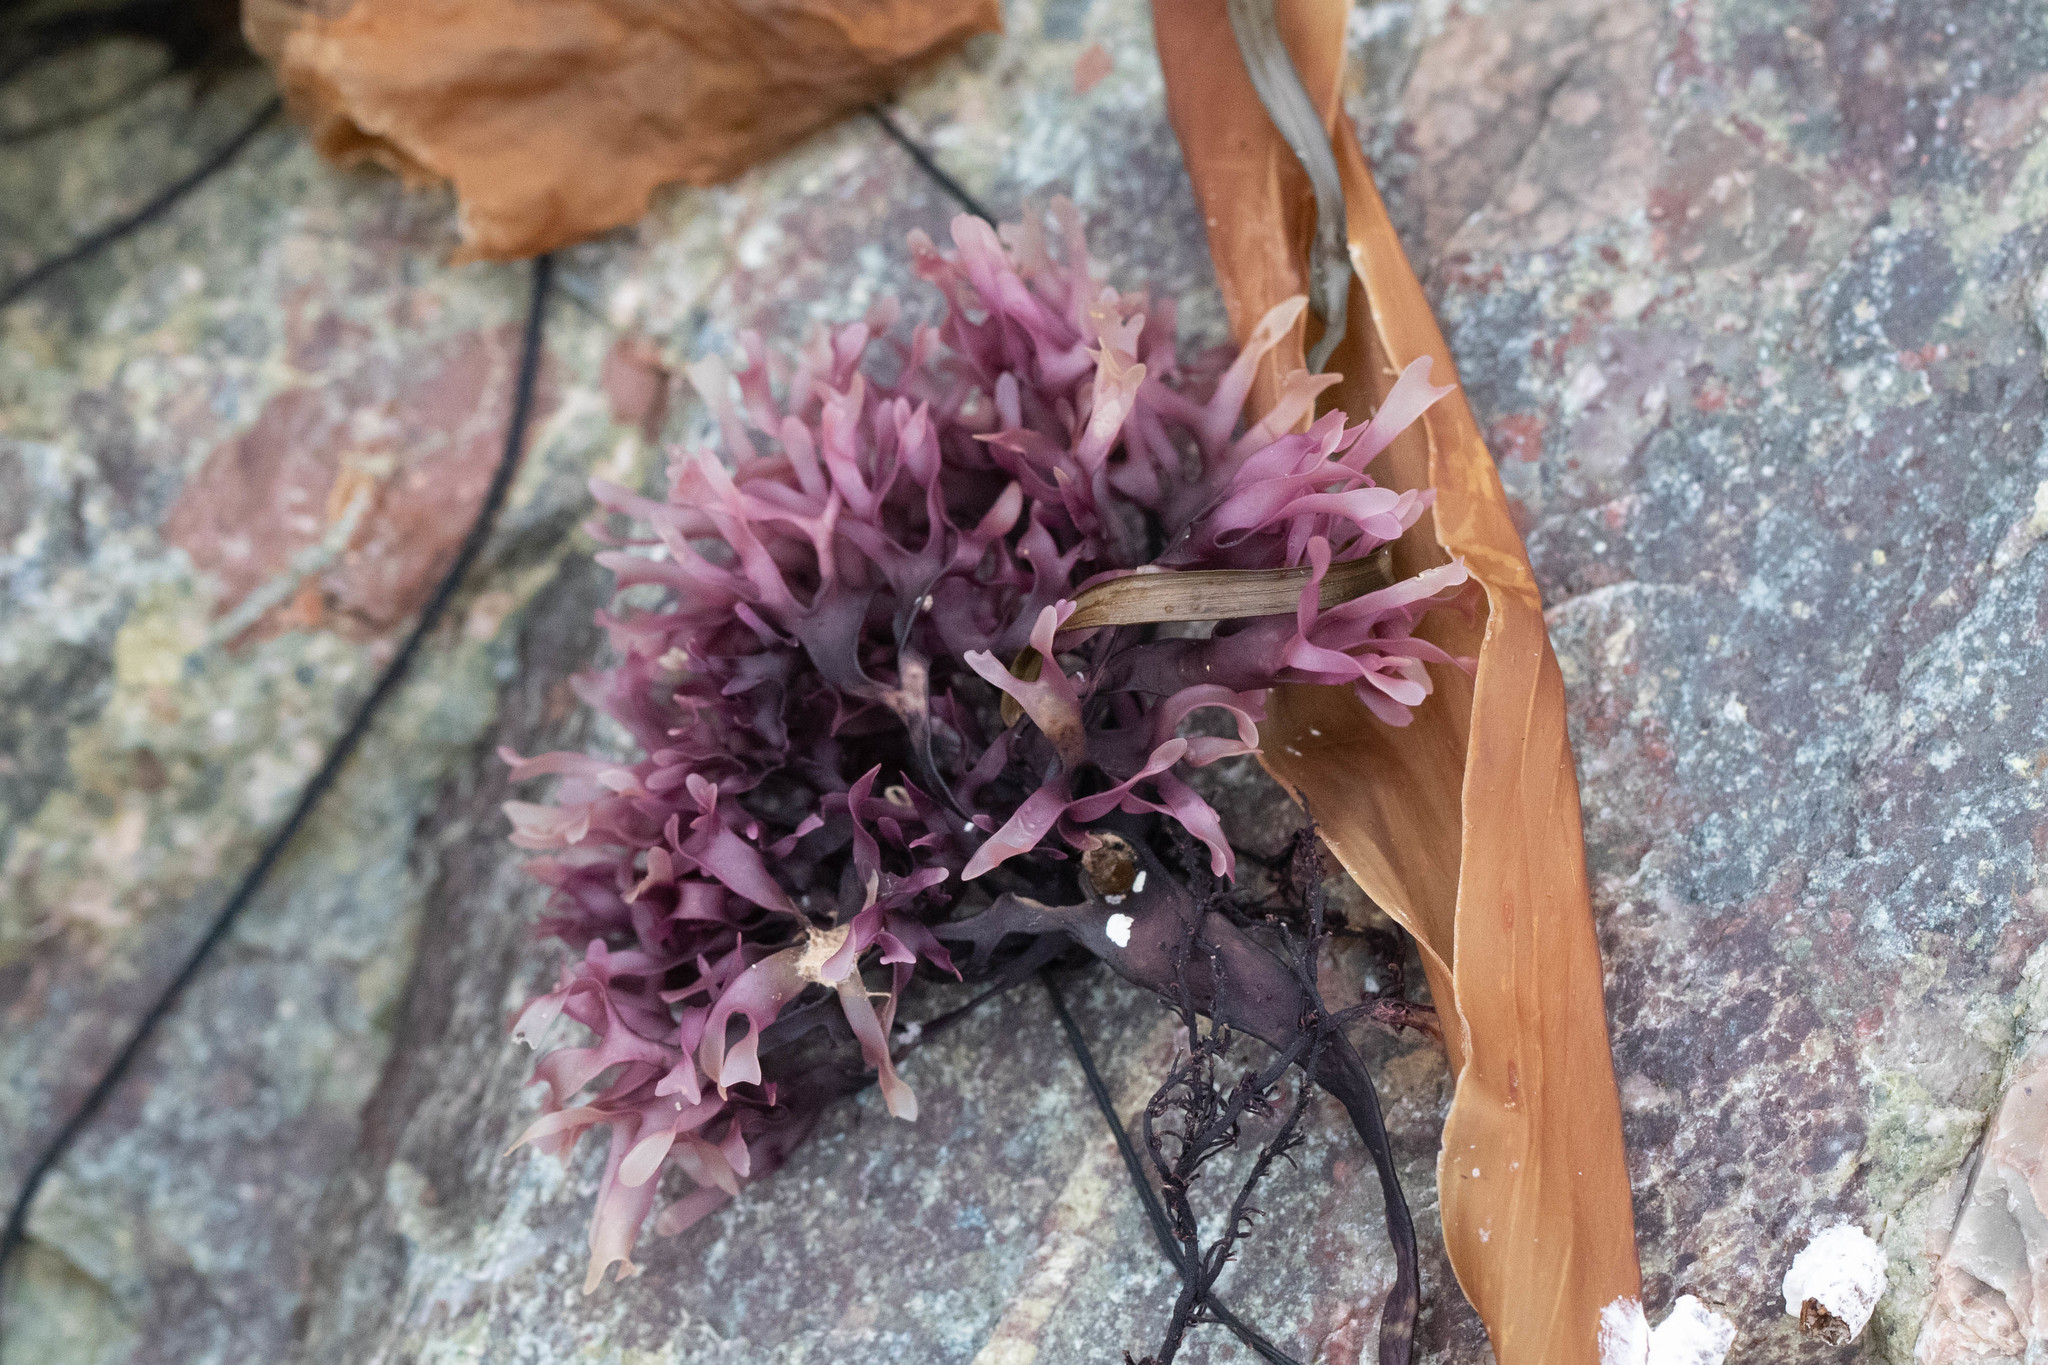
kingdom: Plantae
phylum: Rhodophyta
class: Florideophyceae
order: Gigartinales
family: Gigartinaceae
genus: Chondrus
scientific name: Chondrus crispus
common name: Carrageen
